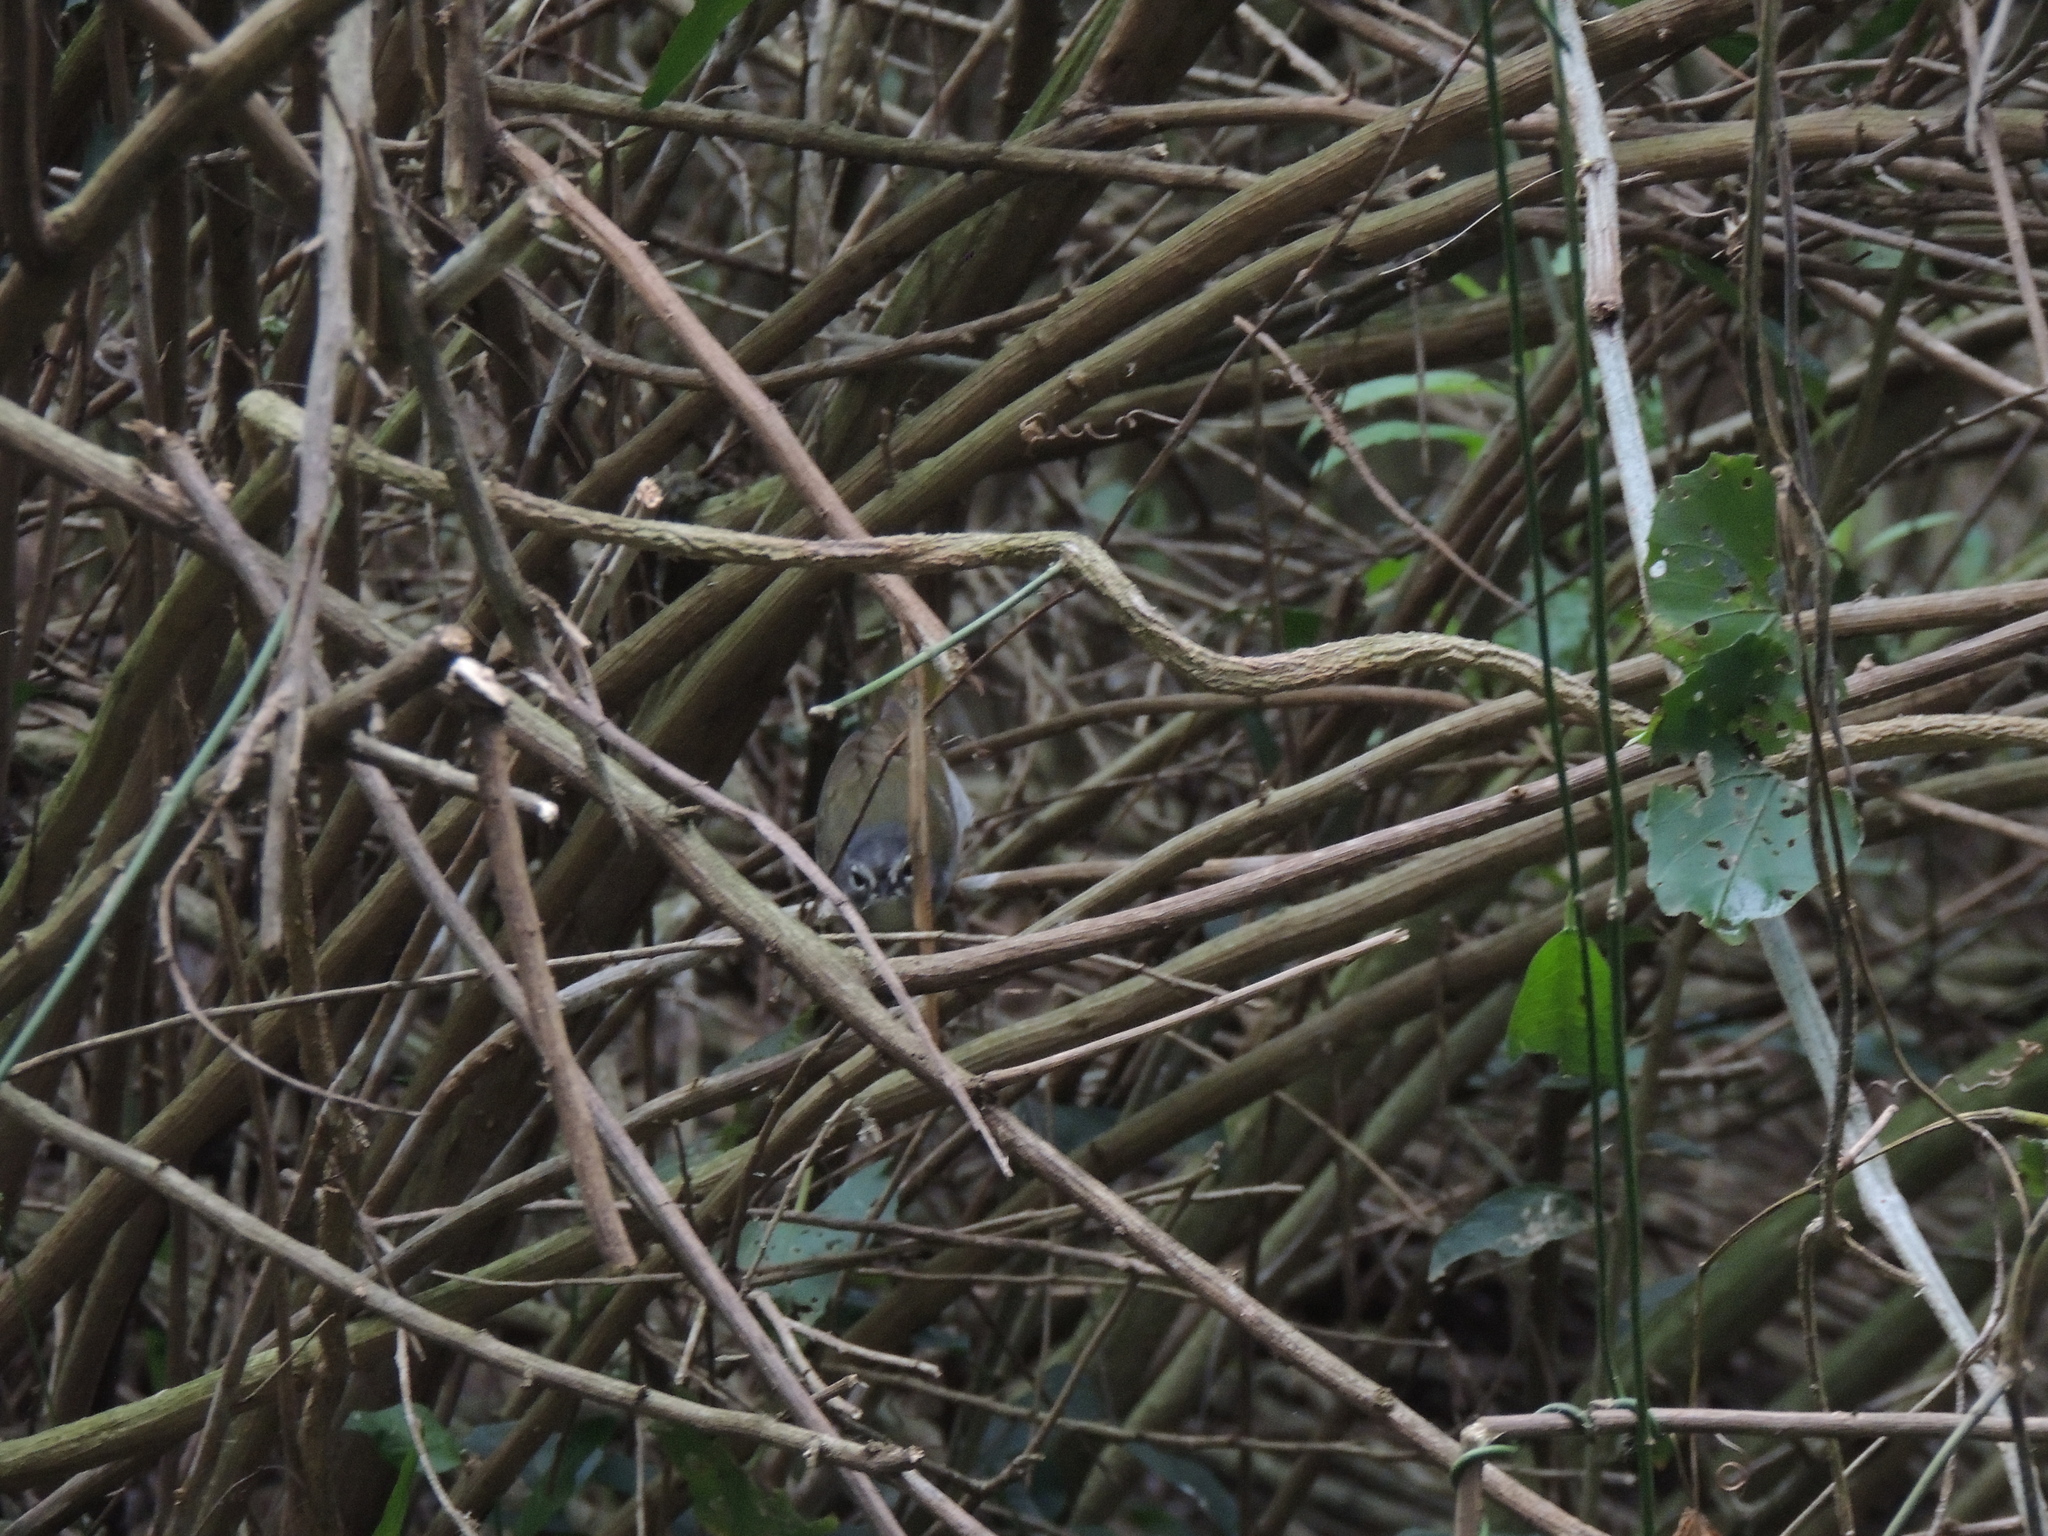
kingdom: Animalia
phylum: Chordata
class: Aves
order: Passeriformes
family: Parulidae
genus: Myiothlypis
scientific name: Myiothlypis leucoblephara
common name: White-rimmed warbler
